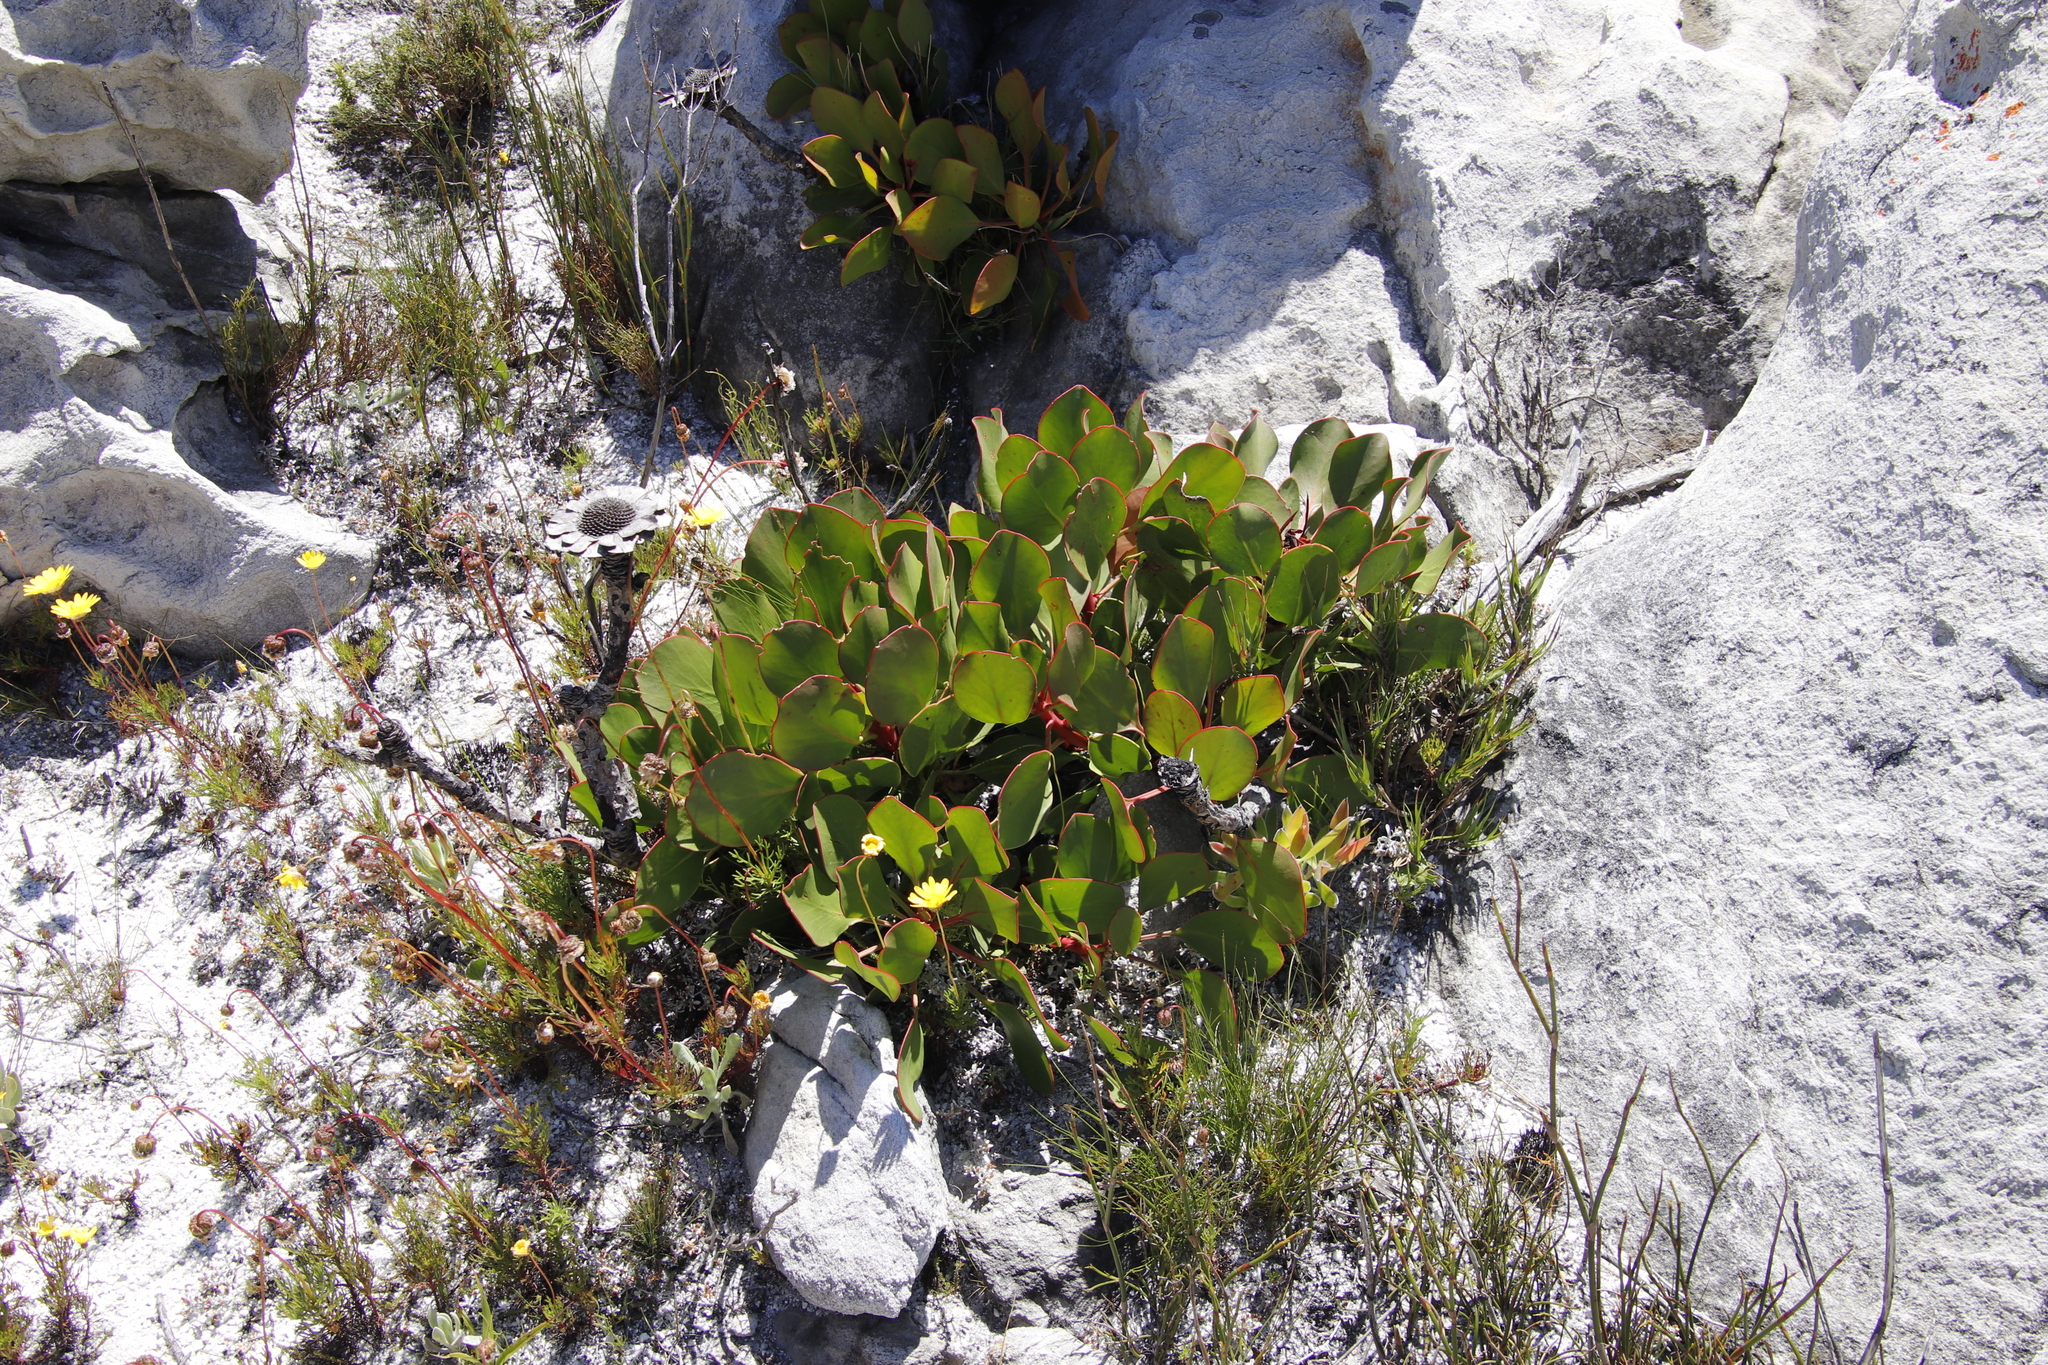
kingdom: Plantae
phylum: Tracheophyta
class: Magnoliopsida
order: Proteales
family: Proteaceae
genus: Protea
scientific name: Protea cynaroides
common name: King protea
